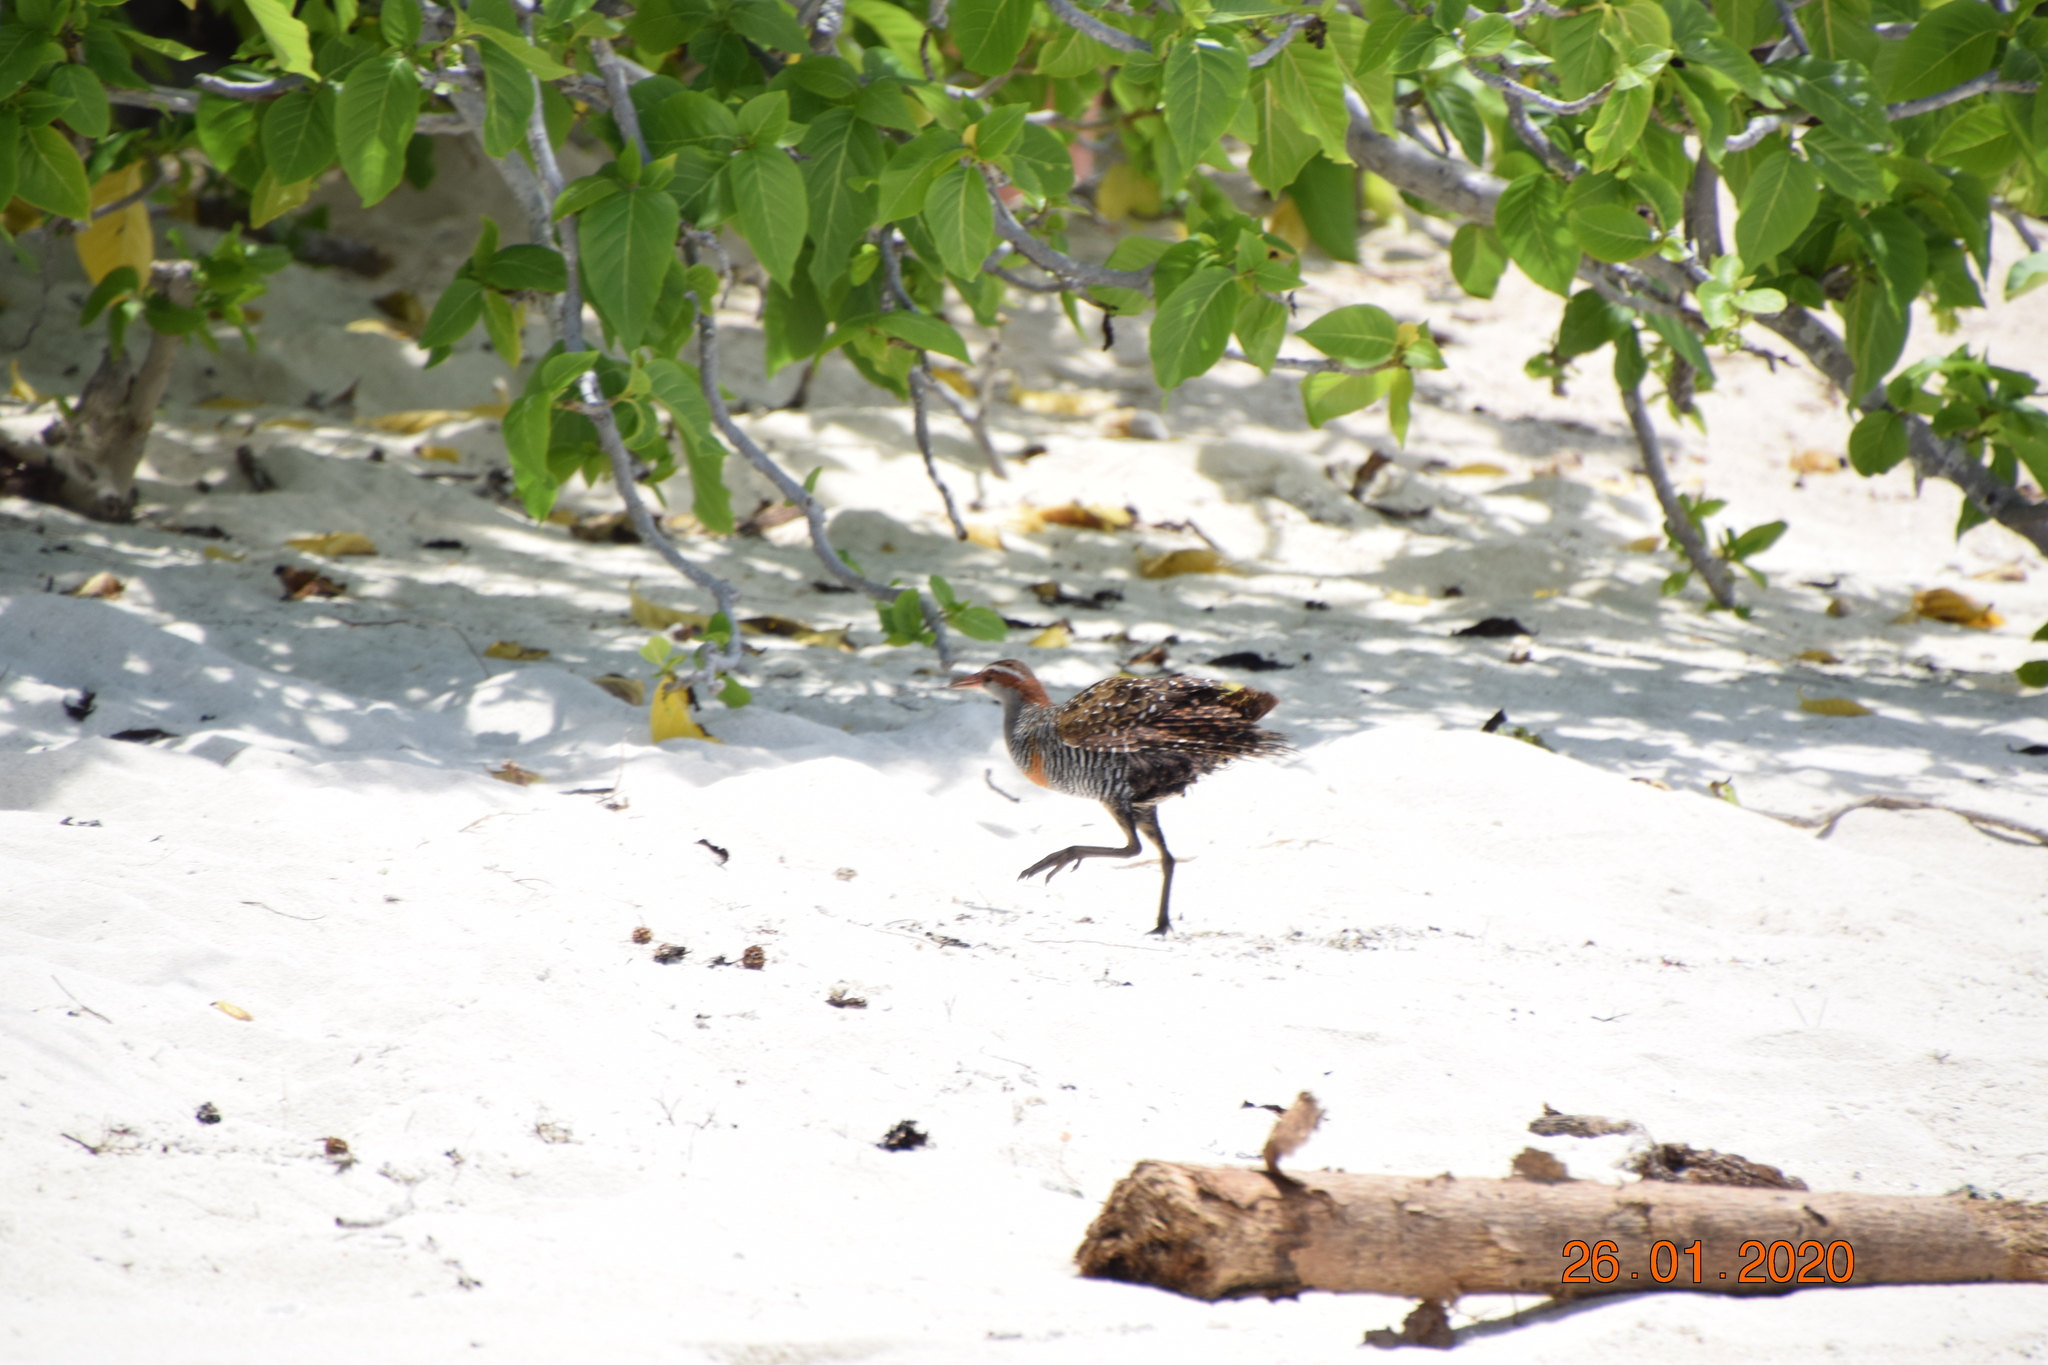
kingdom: Animalia
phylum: Chordata
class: Aves
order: Gruiformes
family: Rallidae
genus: Gallirallus
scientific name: Gallirallus philippensis
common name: Buff-banded rail
